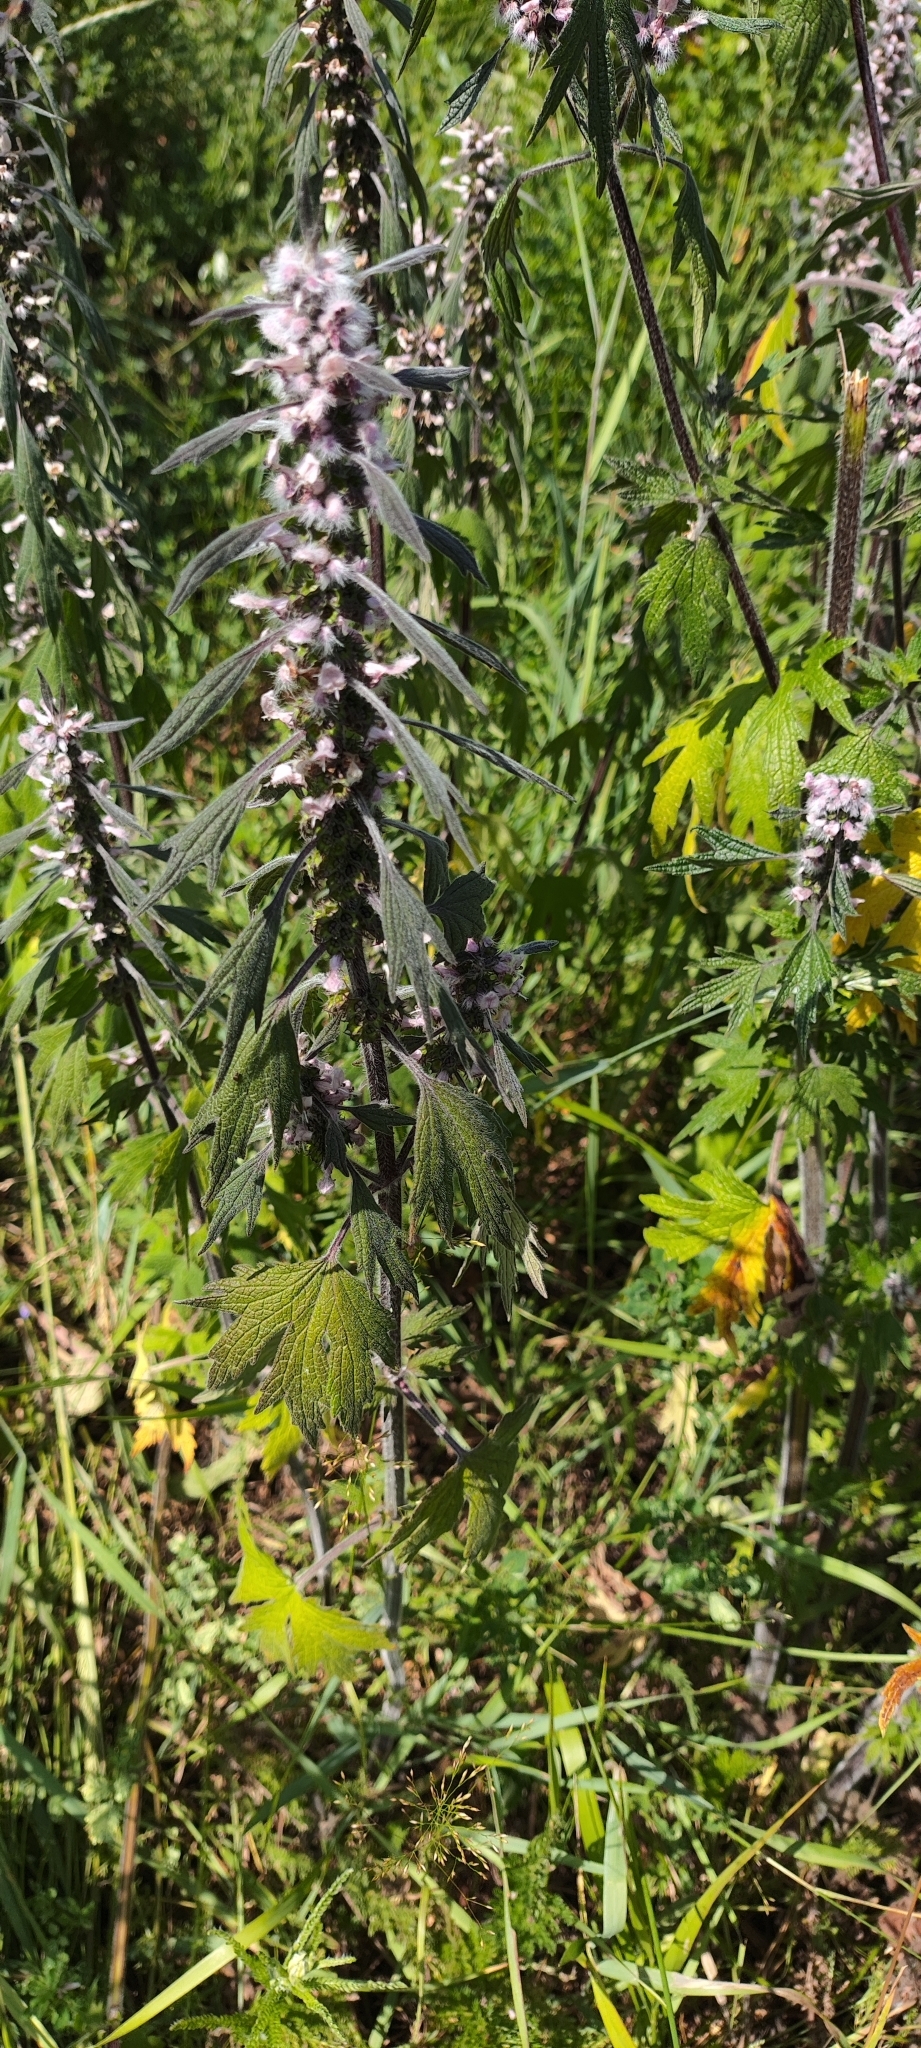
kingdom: Plantae
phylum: Tracheophyta
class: Magnoliopsida
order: Lamiales
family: Lamiaceae
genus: Leonurus
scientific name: Leonurus quinquelobatus
